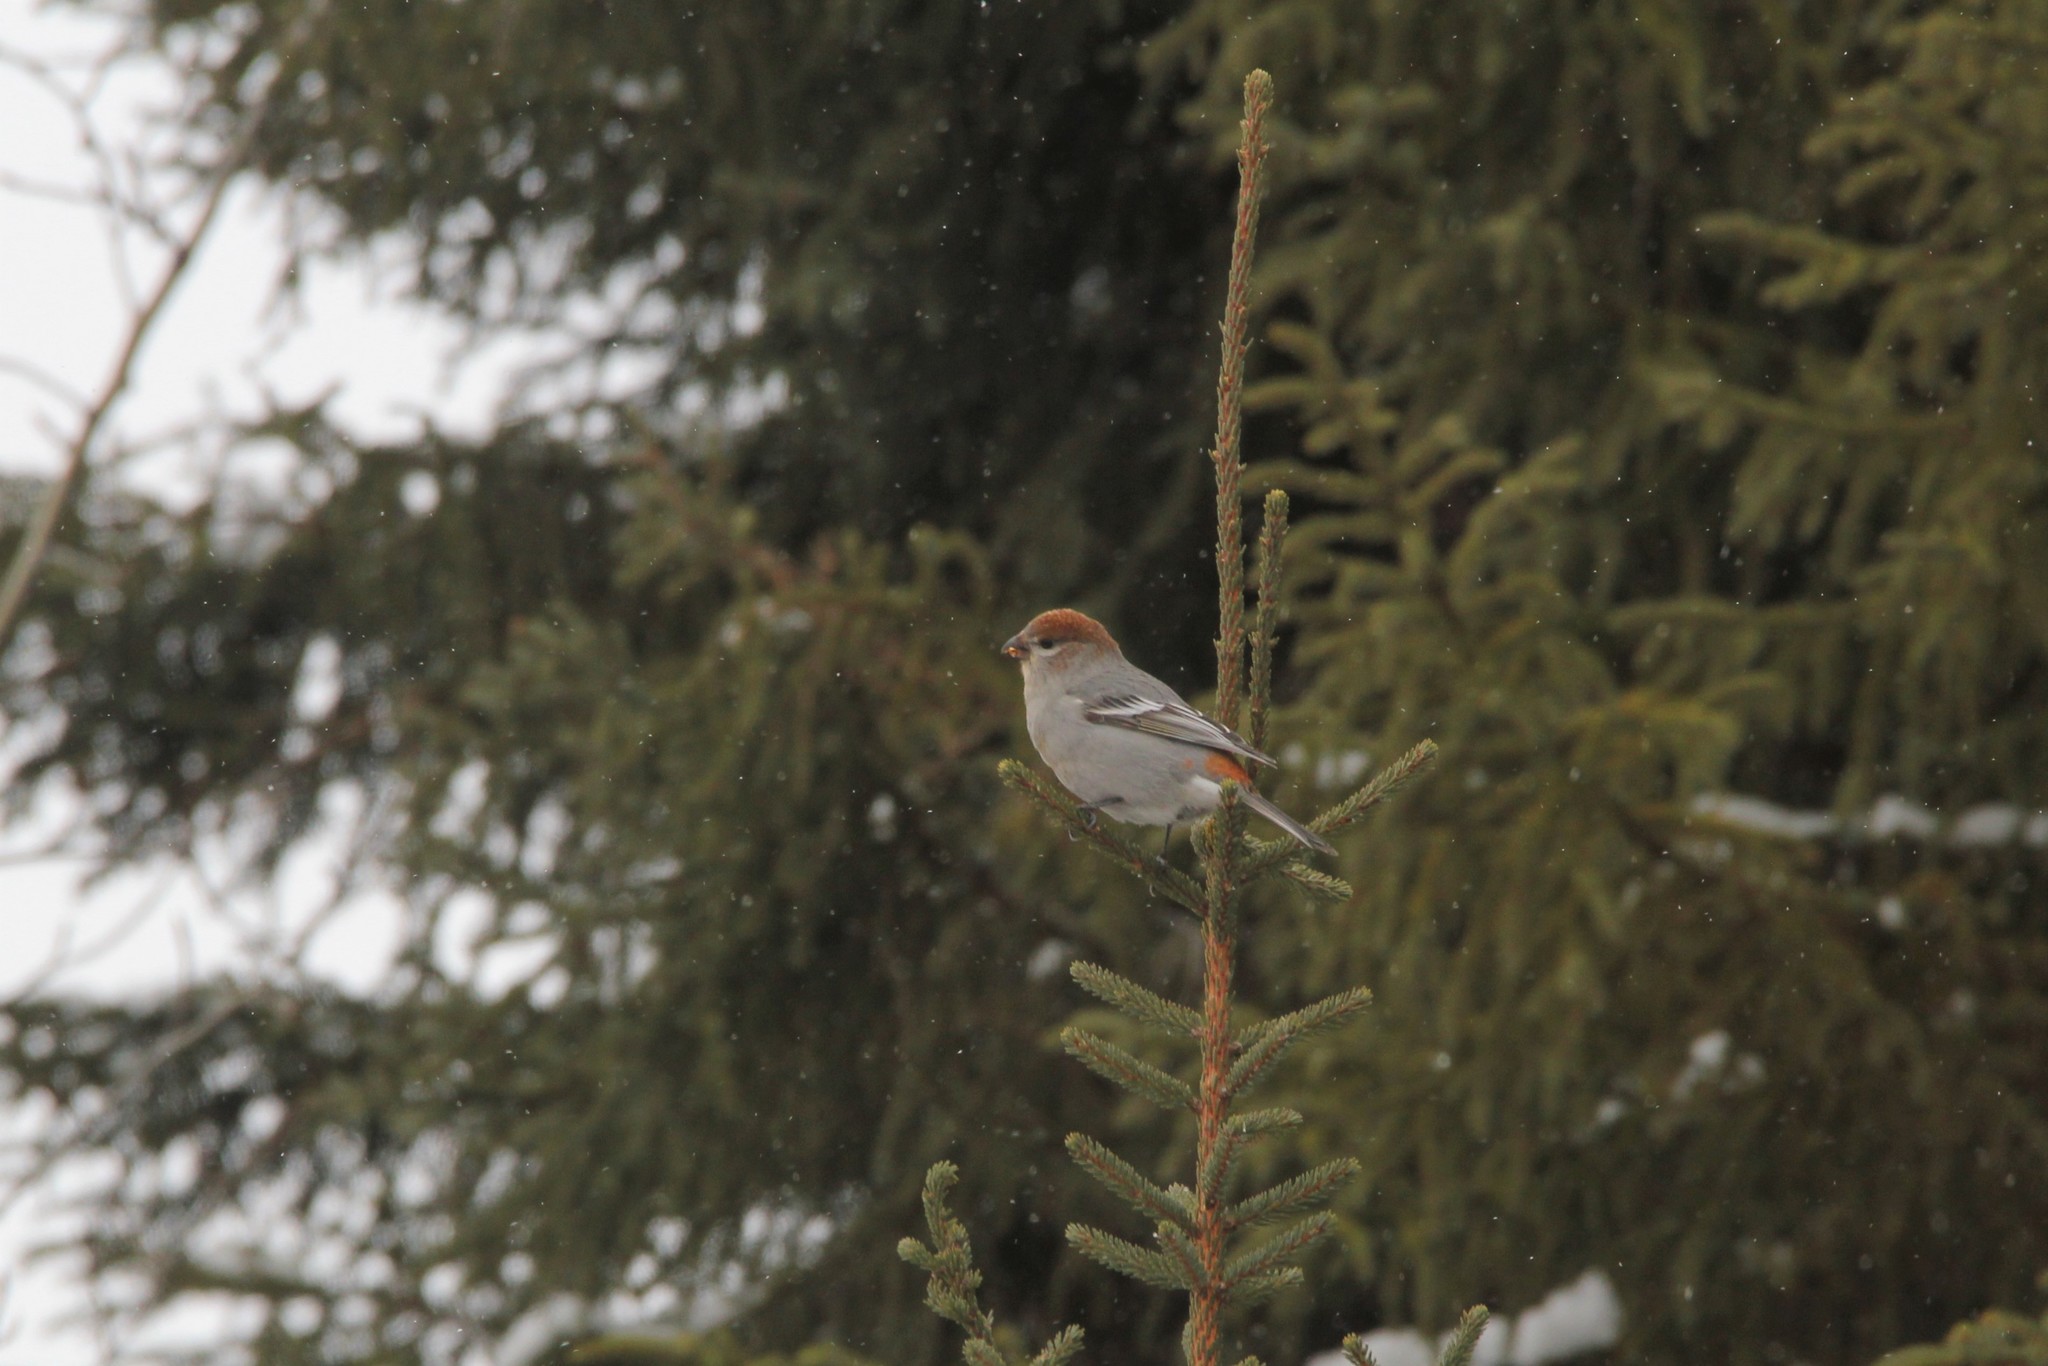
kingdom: Animalia
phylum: Chordata
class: Aves
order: Passeriformes
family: Fringillidae
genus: Pinicola
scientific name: Pinicola enucleator
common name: Pine grosbeak
